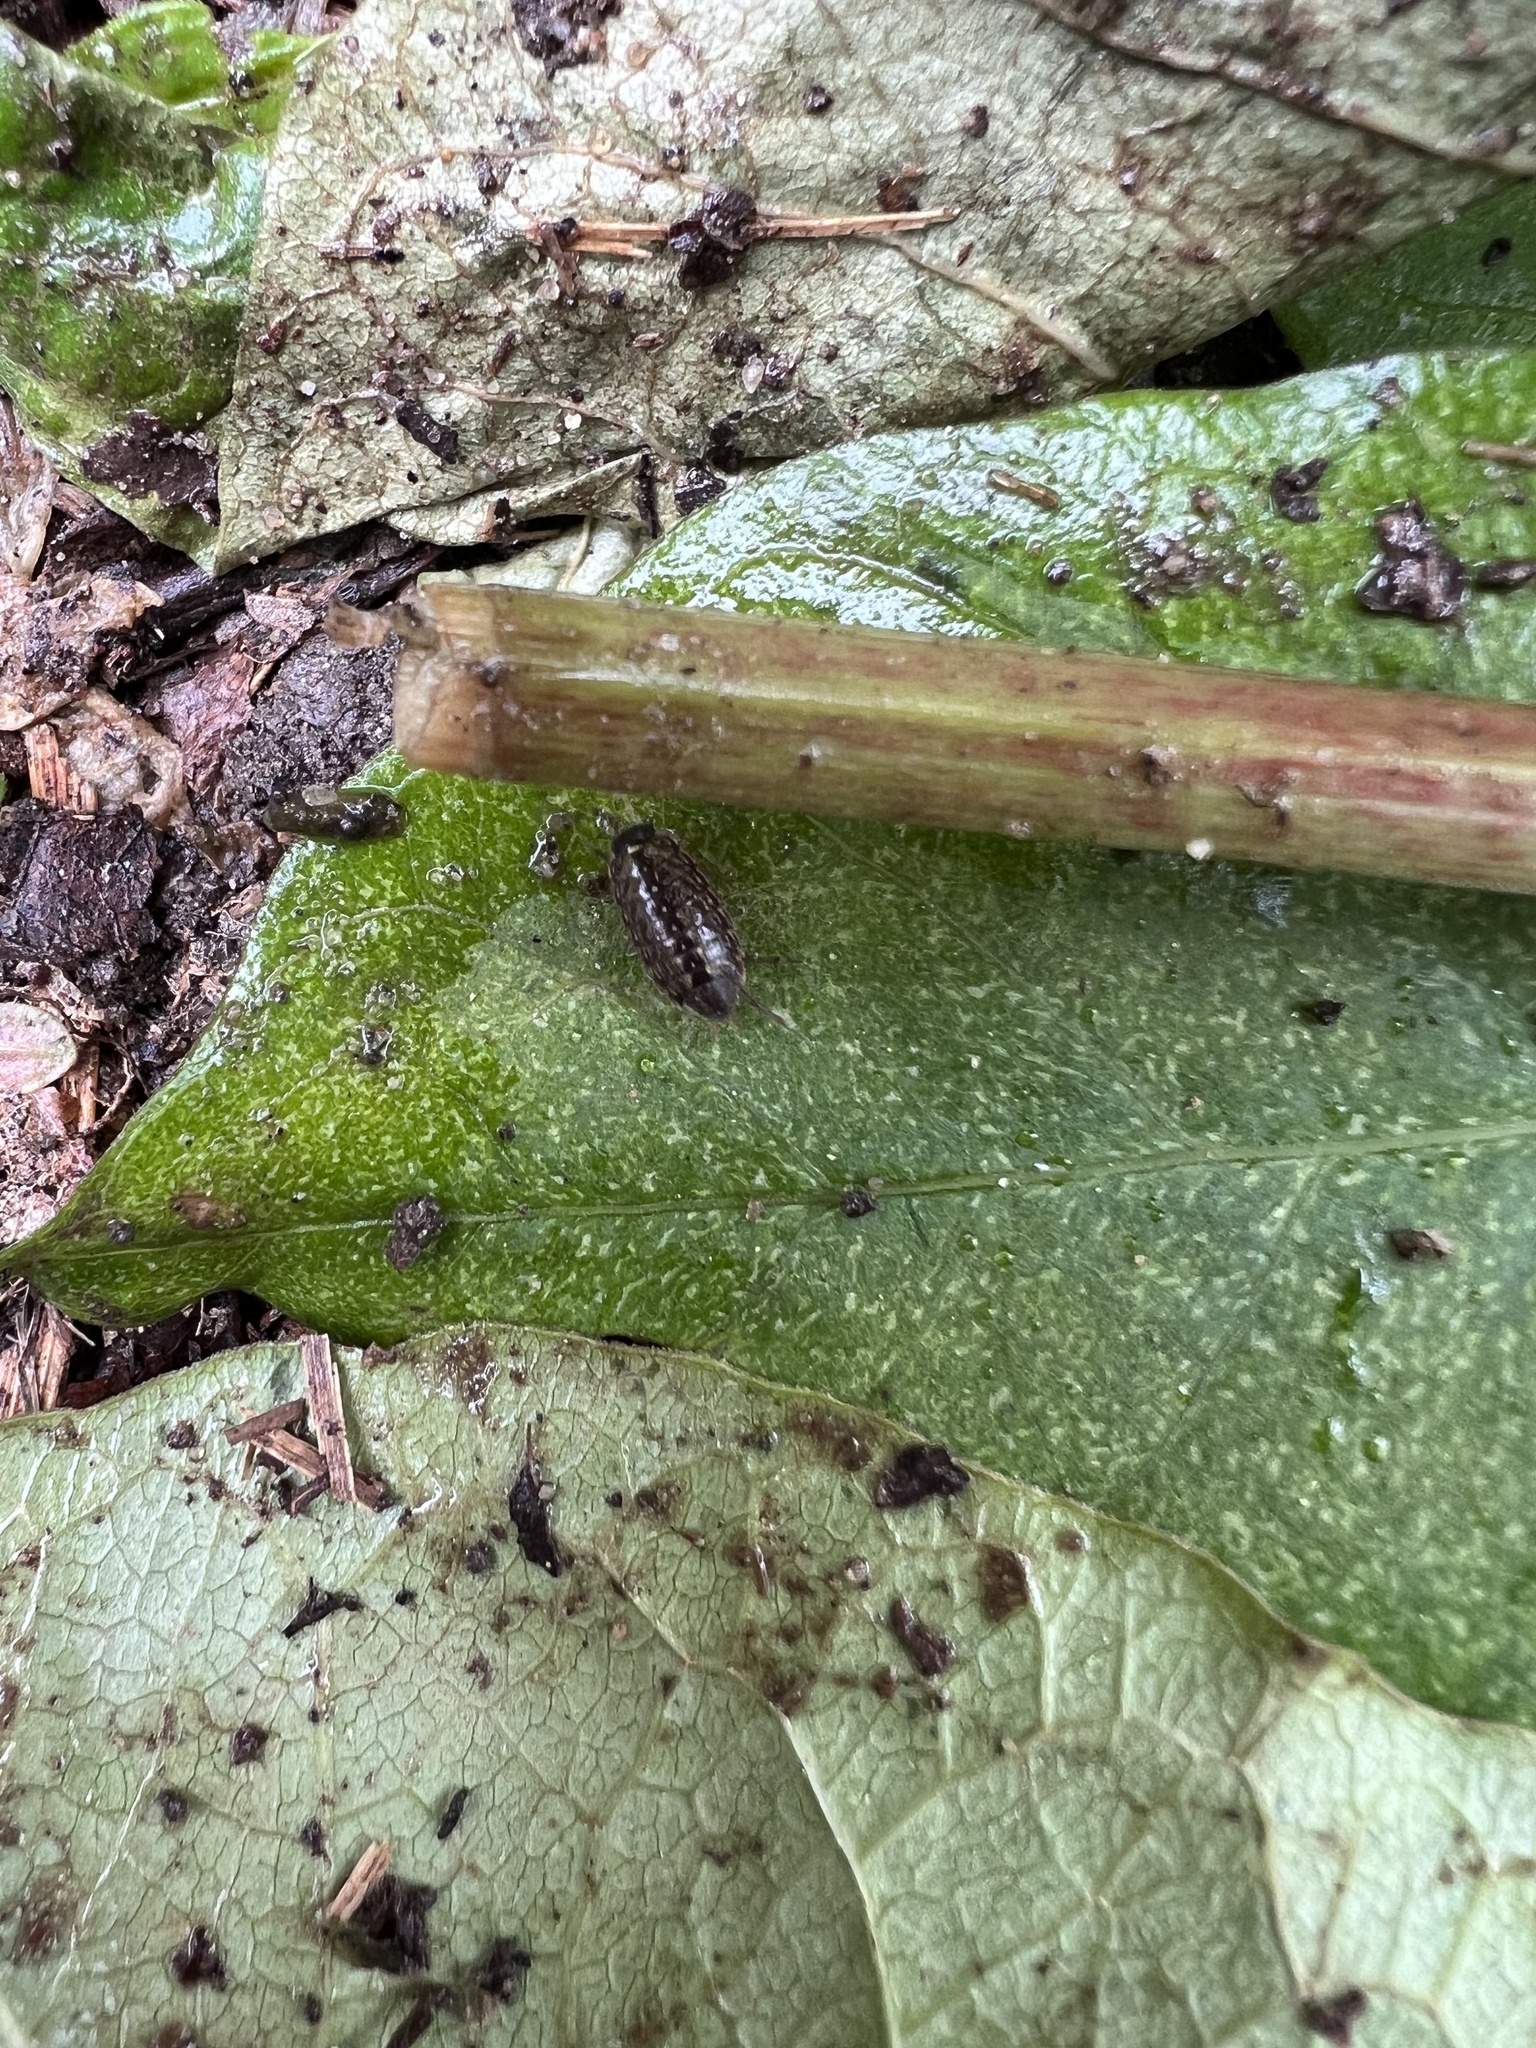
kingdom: Animalia
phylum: Arthropoda
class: Malacostraca
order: Isopoda
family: Philosciidae
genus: Philoscia
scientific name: Philoscia muscorum
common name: Common striped woodlouse
